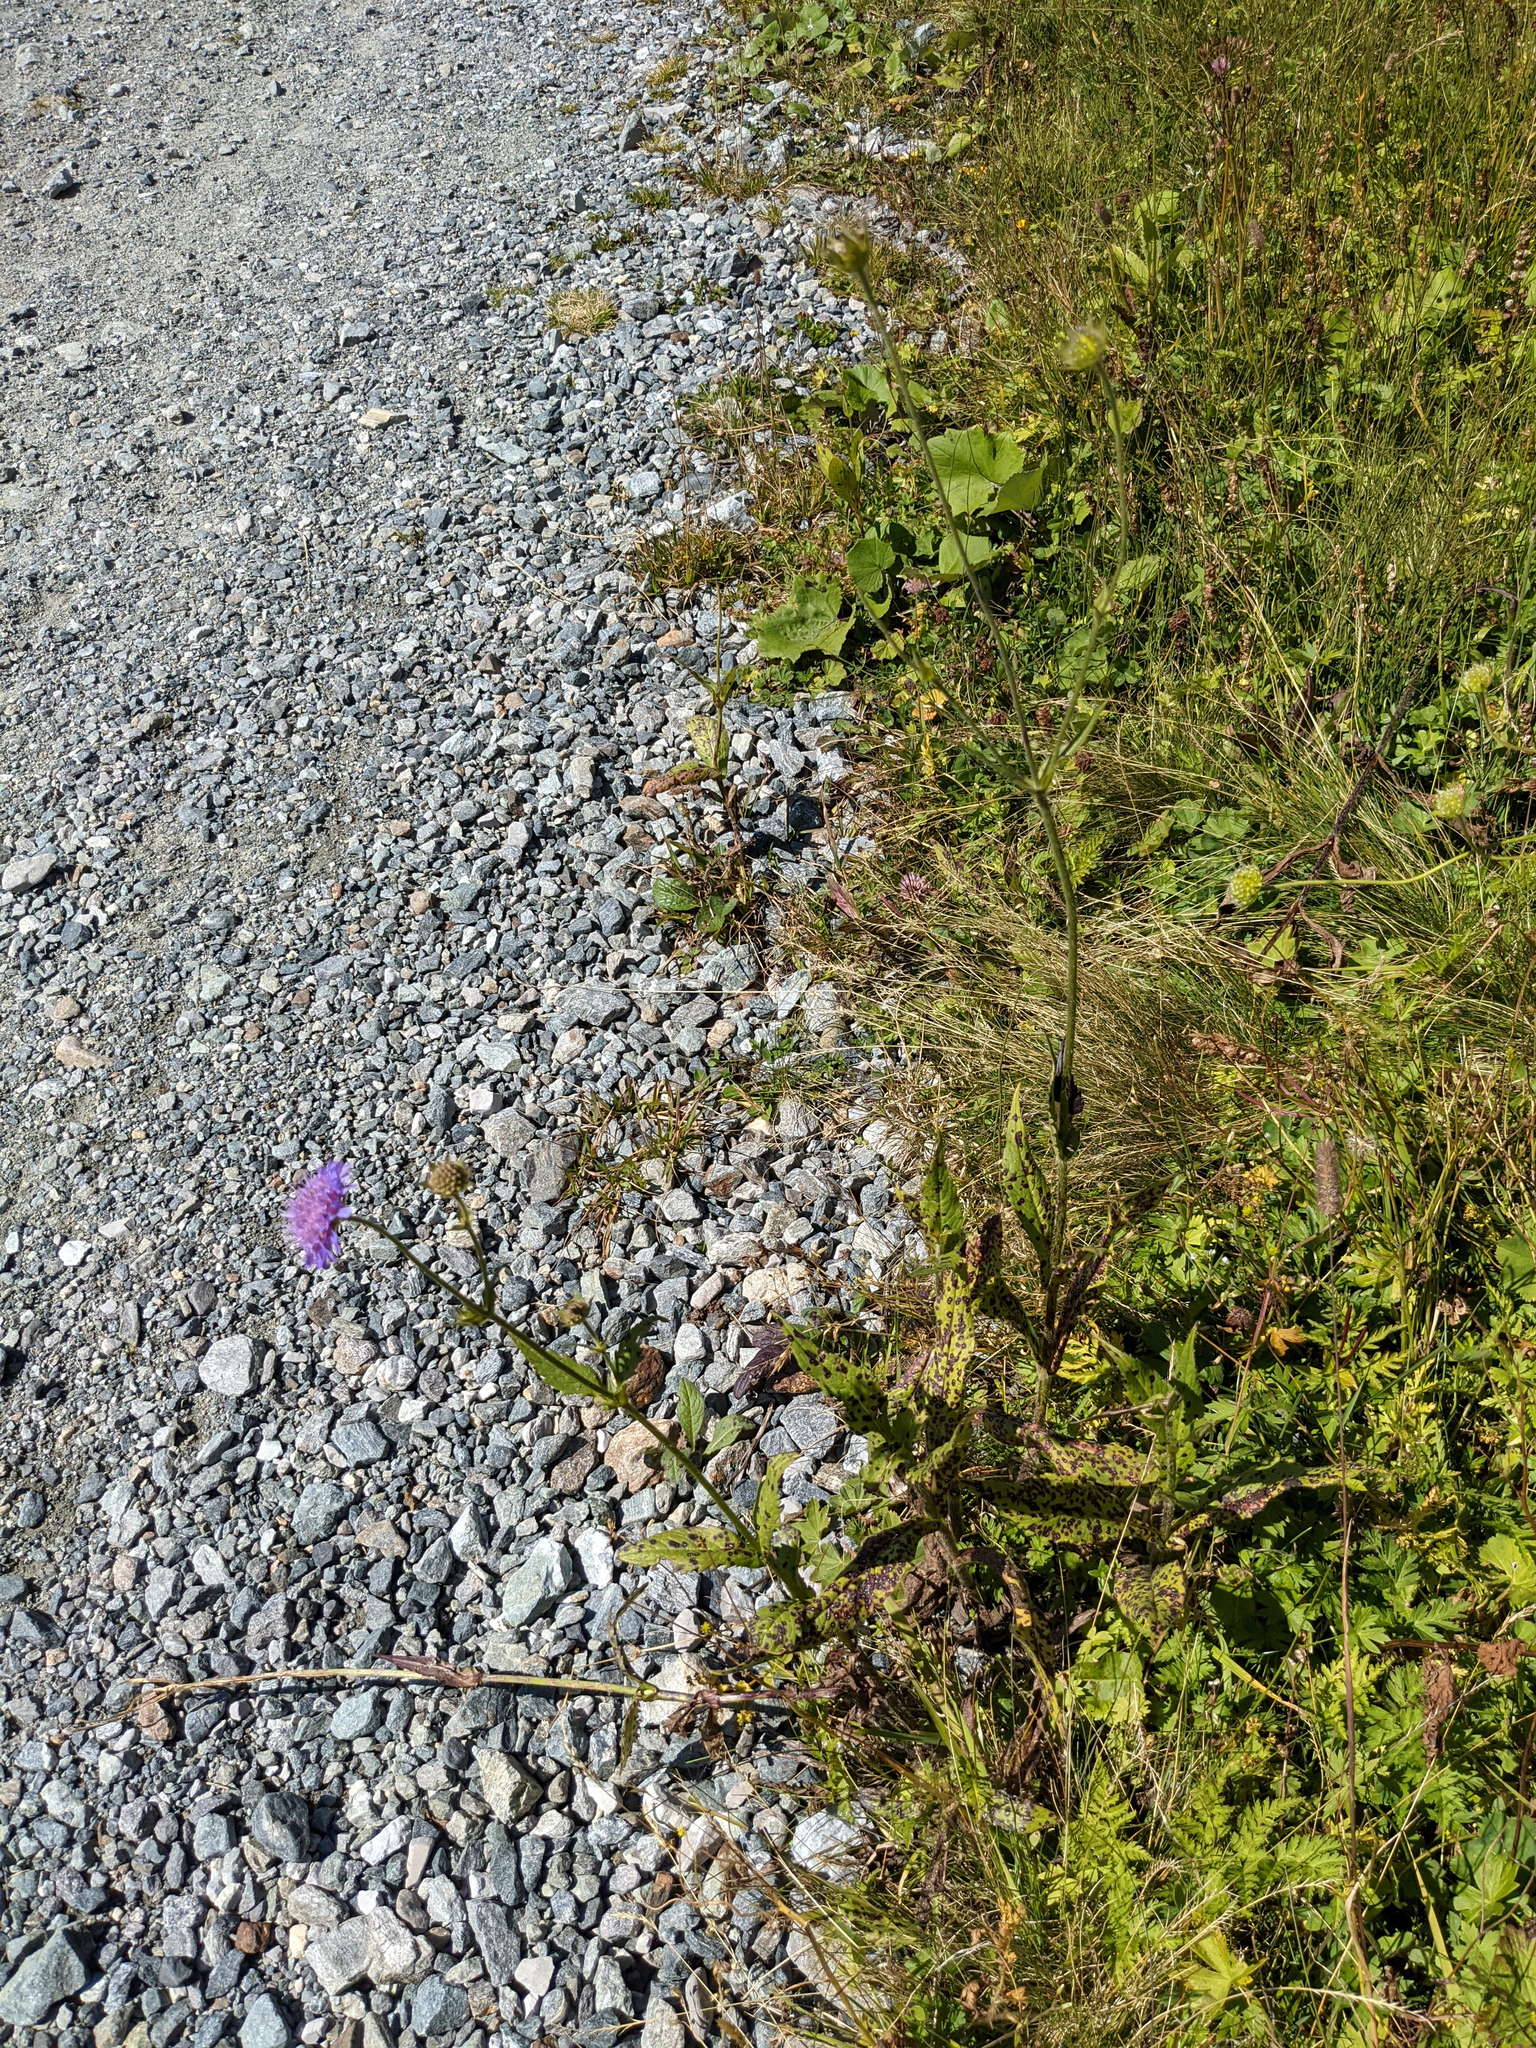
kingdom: Plantae
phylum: Tracheophyta
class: Magnoliopsida
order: Dipsacales
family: Caprifoliaceae
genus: Knautia
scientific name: Knautia dipsacifolia
